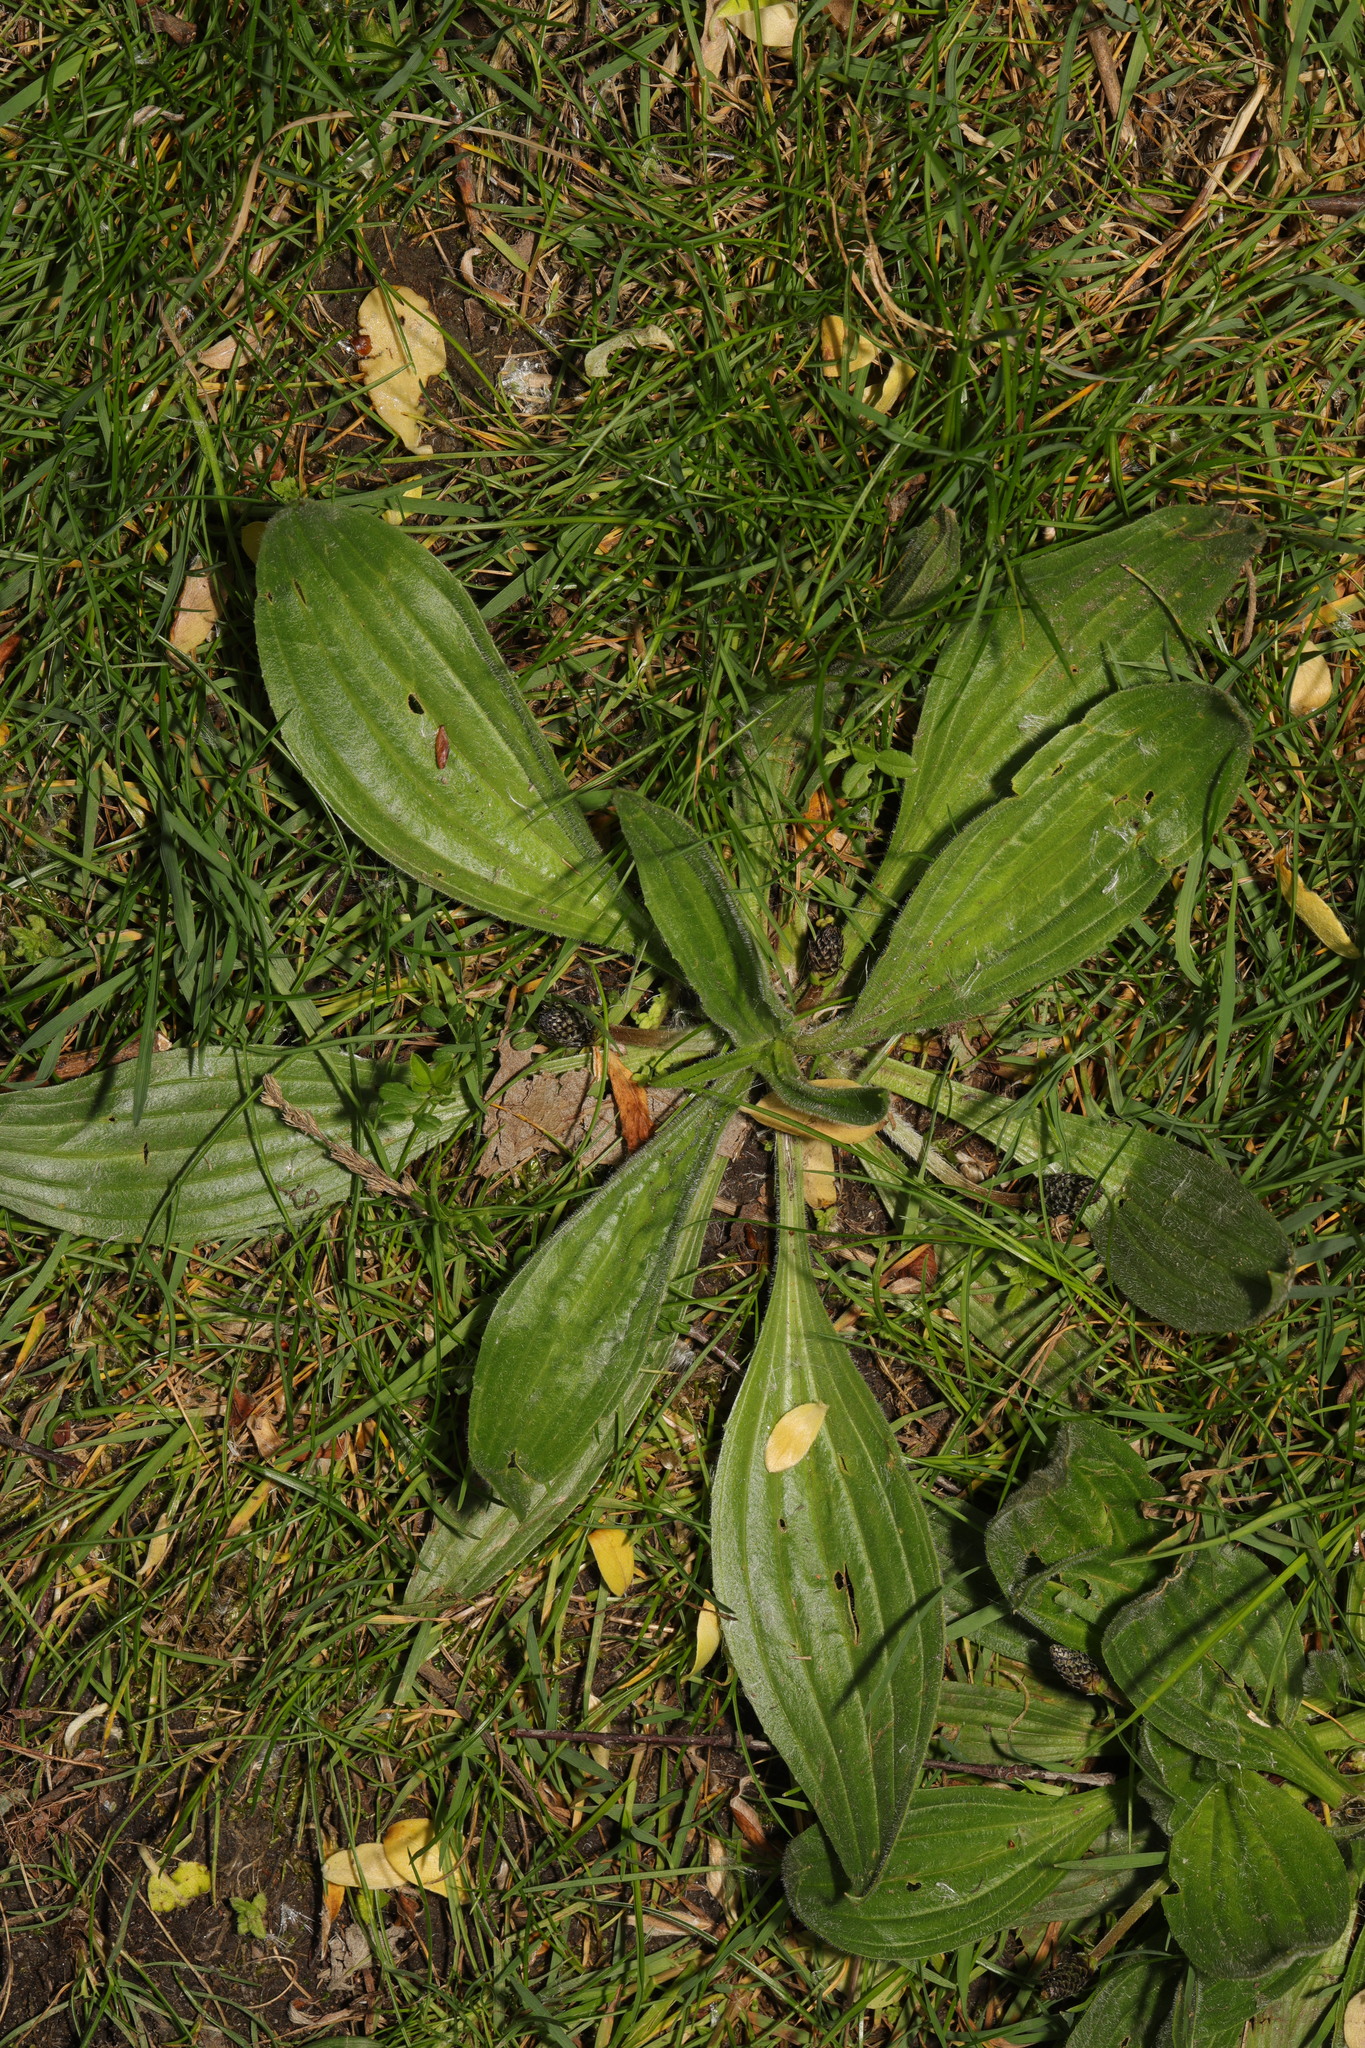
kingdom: Plantae
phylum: Tracheophyta
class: Magnoliopsida
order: Lamiales
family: Plantaginaceae
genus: Plantago
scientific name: Plantago lanceolata
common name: Ribwort plantain
